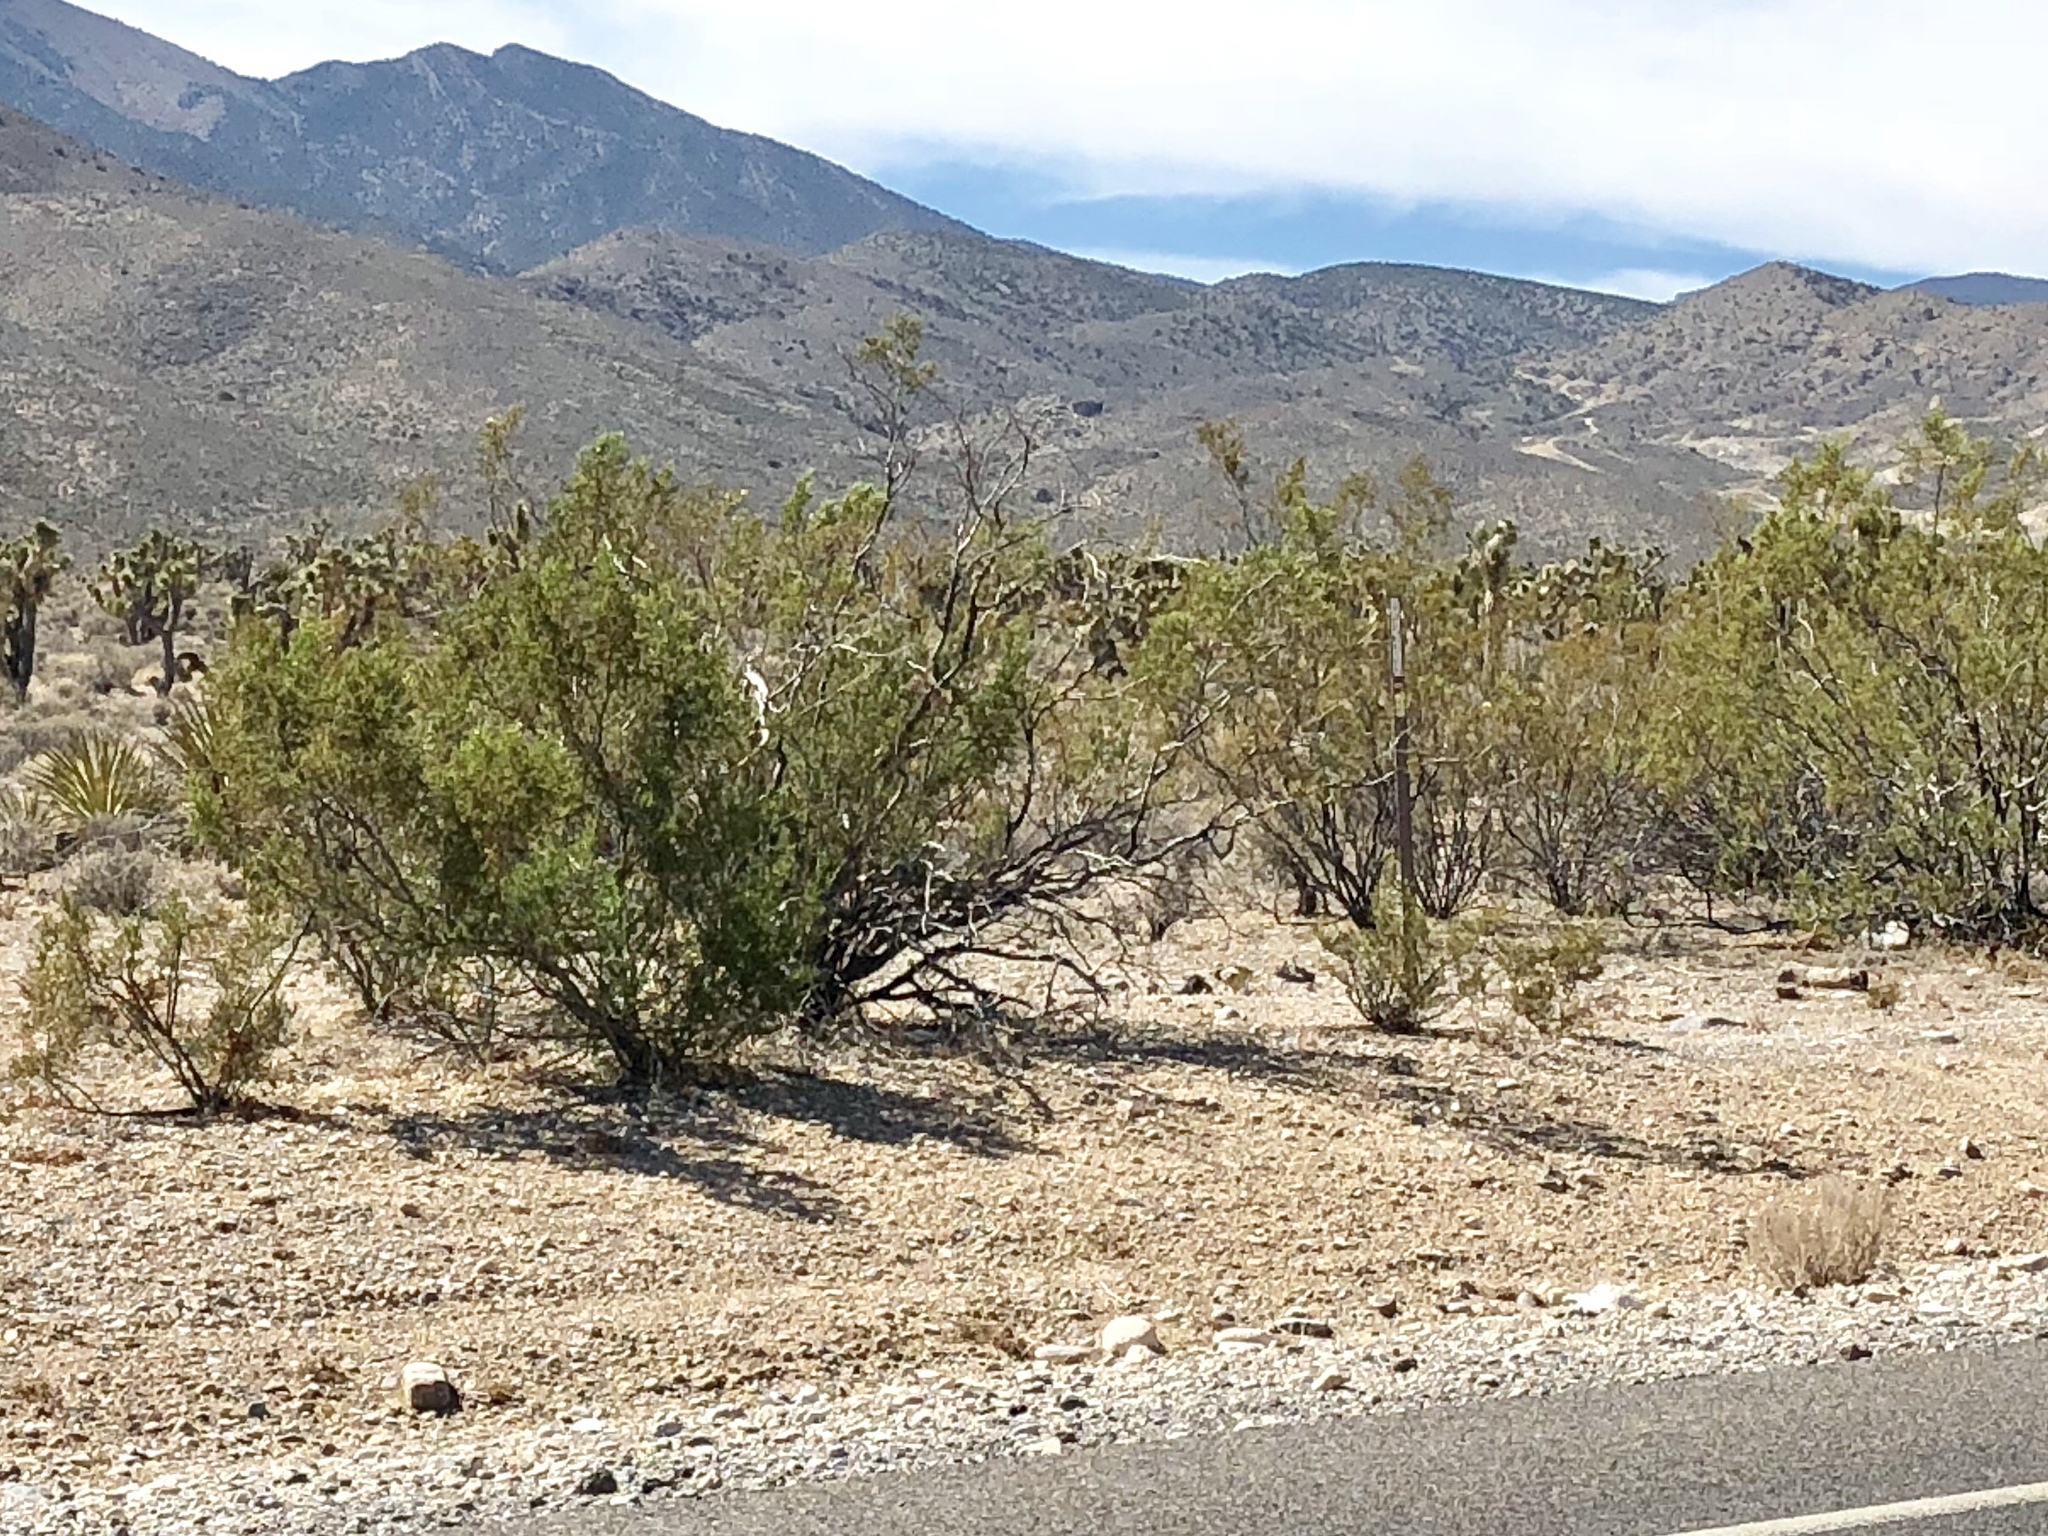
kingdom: Plantae
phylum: Tracheophyta
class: Magnoliopsida
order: Zygophyllales
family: Zygophyllaceae
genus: Larrea
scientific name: Larrea tridentata
